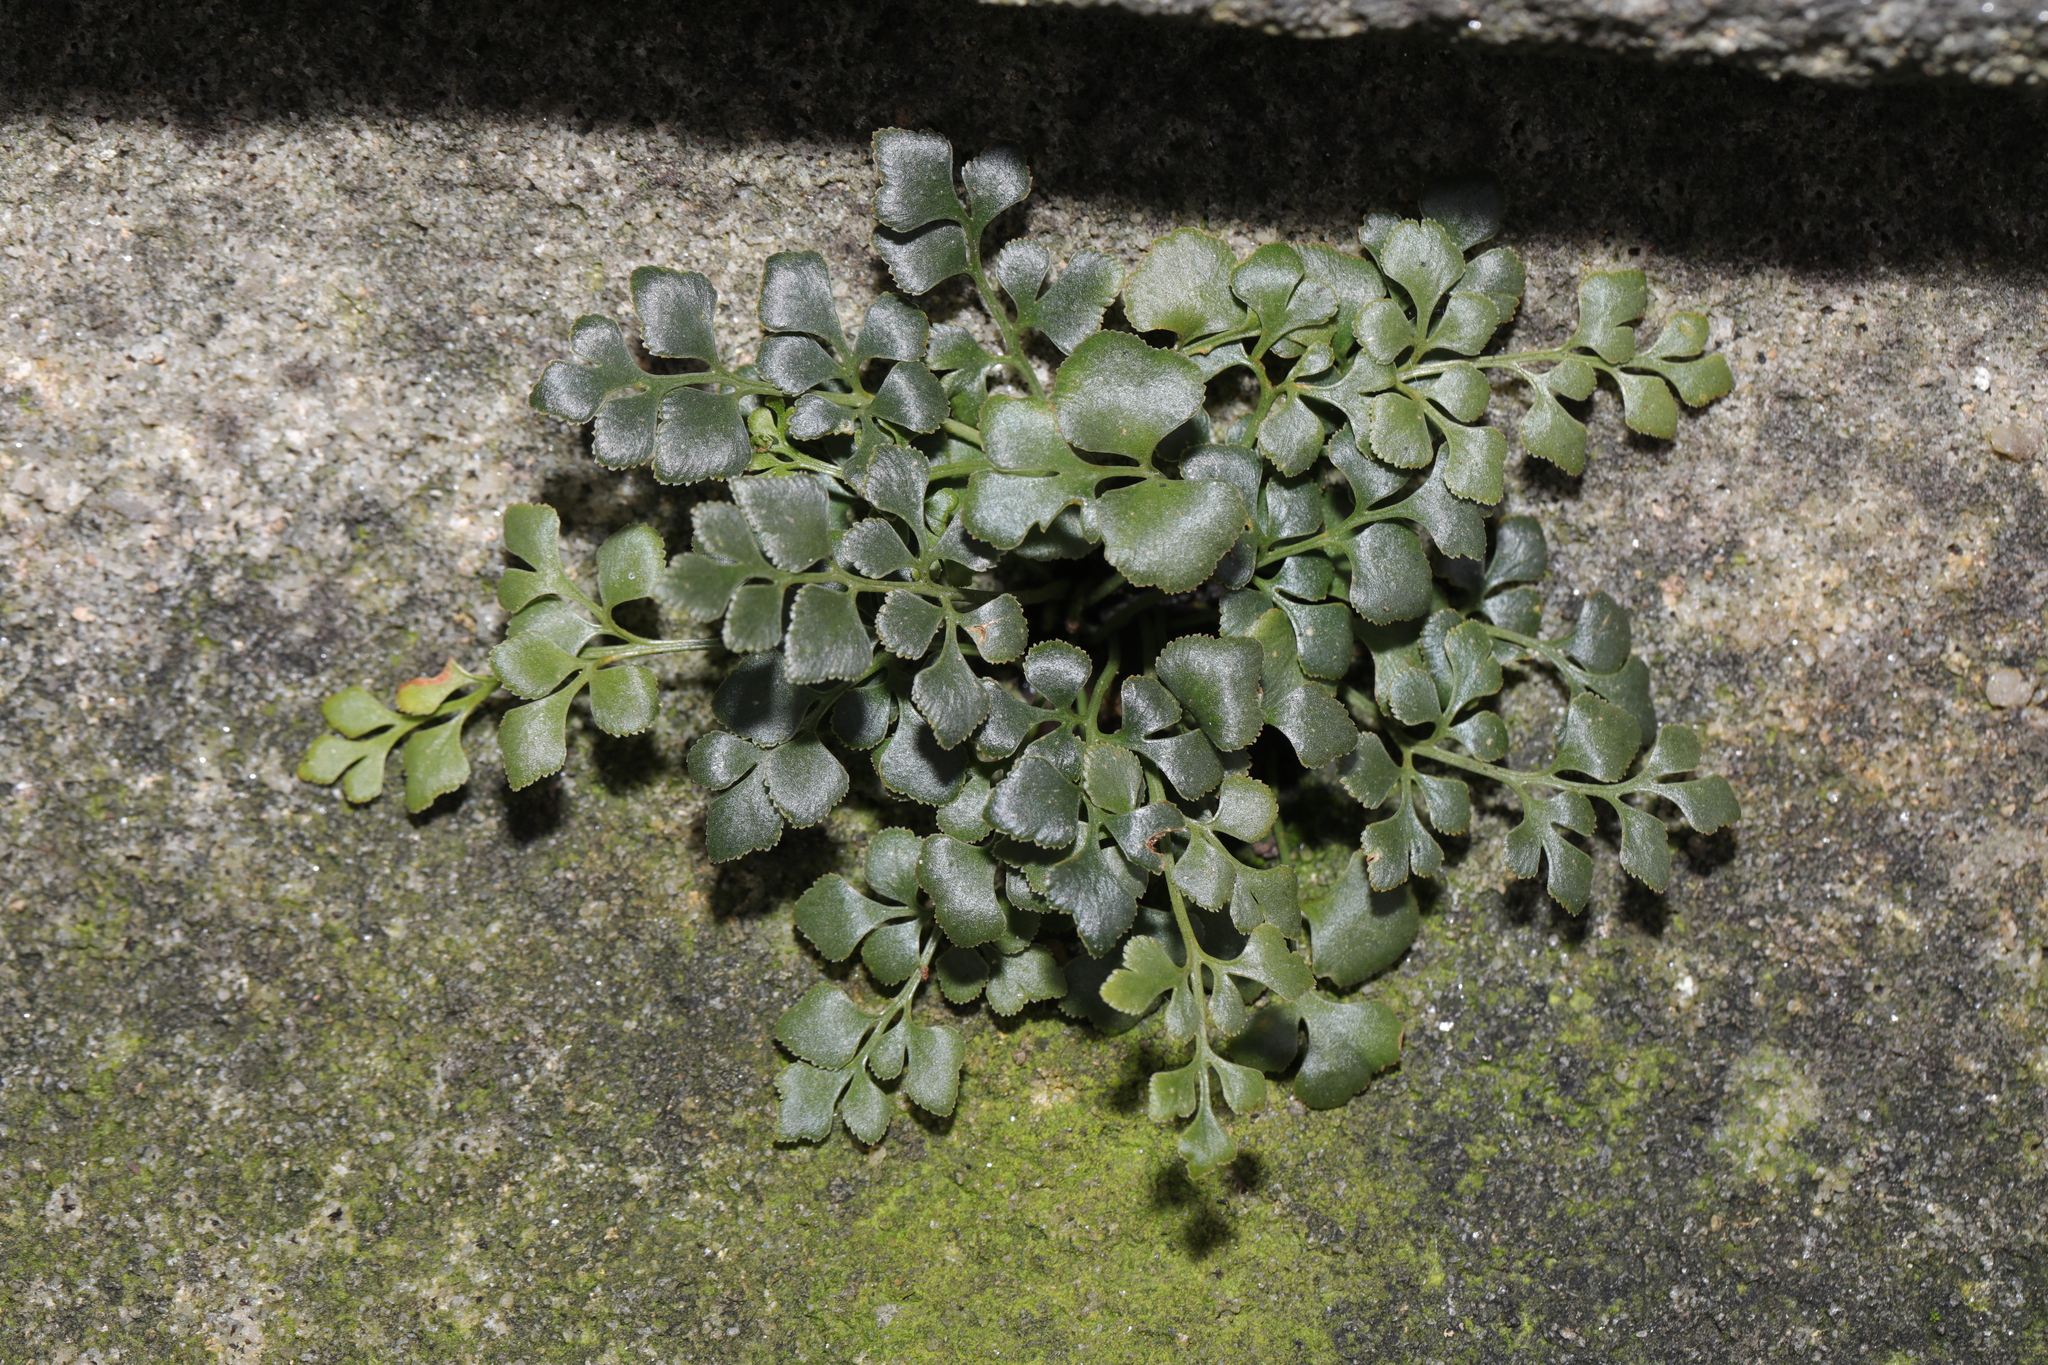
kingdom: Plantae
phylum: Tracheophyta
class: Polypodiopsida
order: Polypodiales
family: Aspleniaceae
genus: Asplenium
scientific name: Asplenium ruta-muraria
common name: Wall-rue
